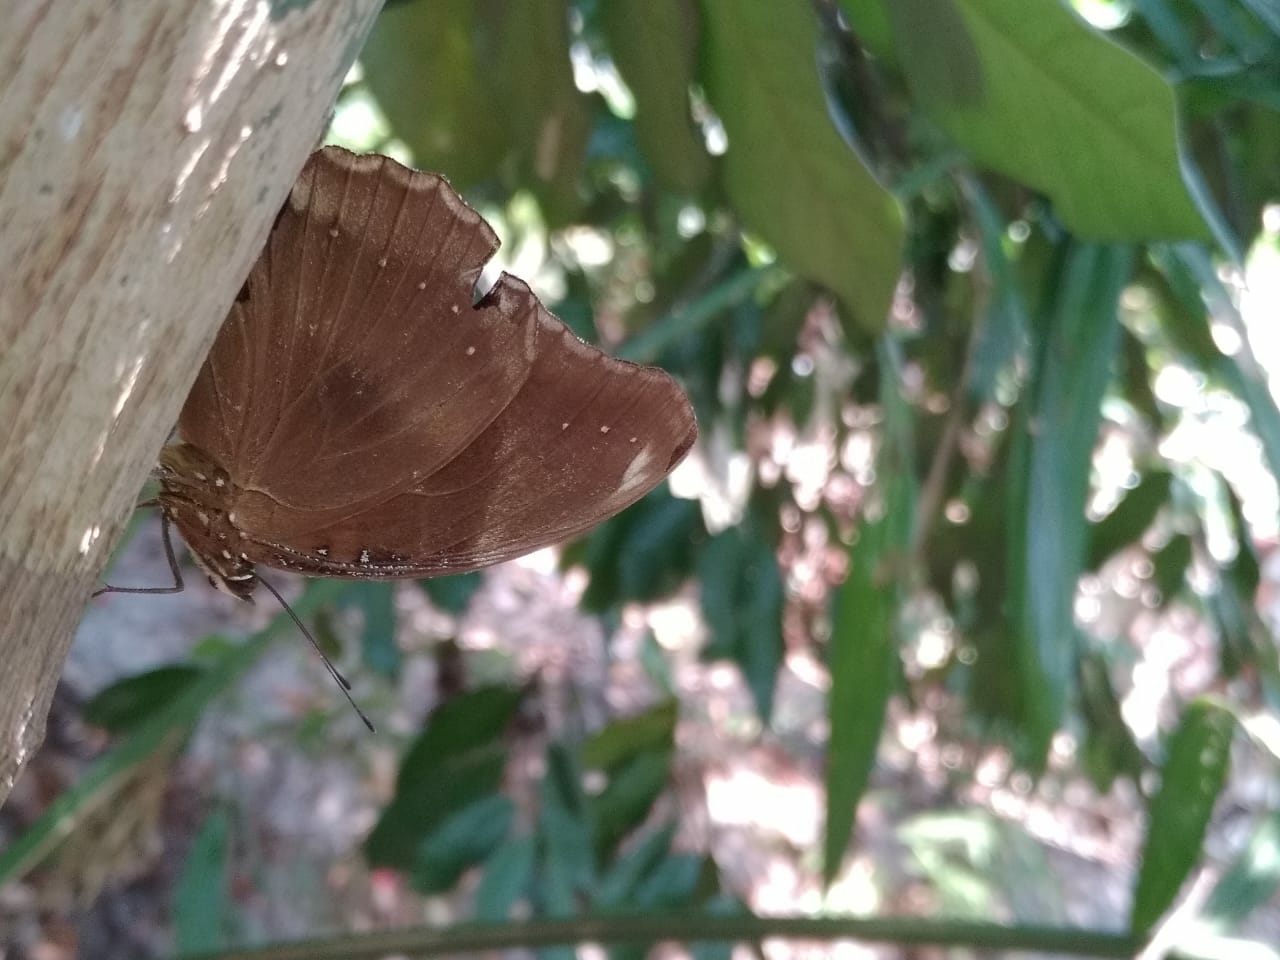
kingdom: Animalia
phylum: Arthropoda
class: Insecta
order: Lepidoptera
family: Nymphalidae
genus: Hypolimnas
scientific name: Hypolimnas bolina
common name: Great eggfly
